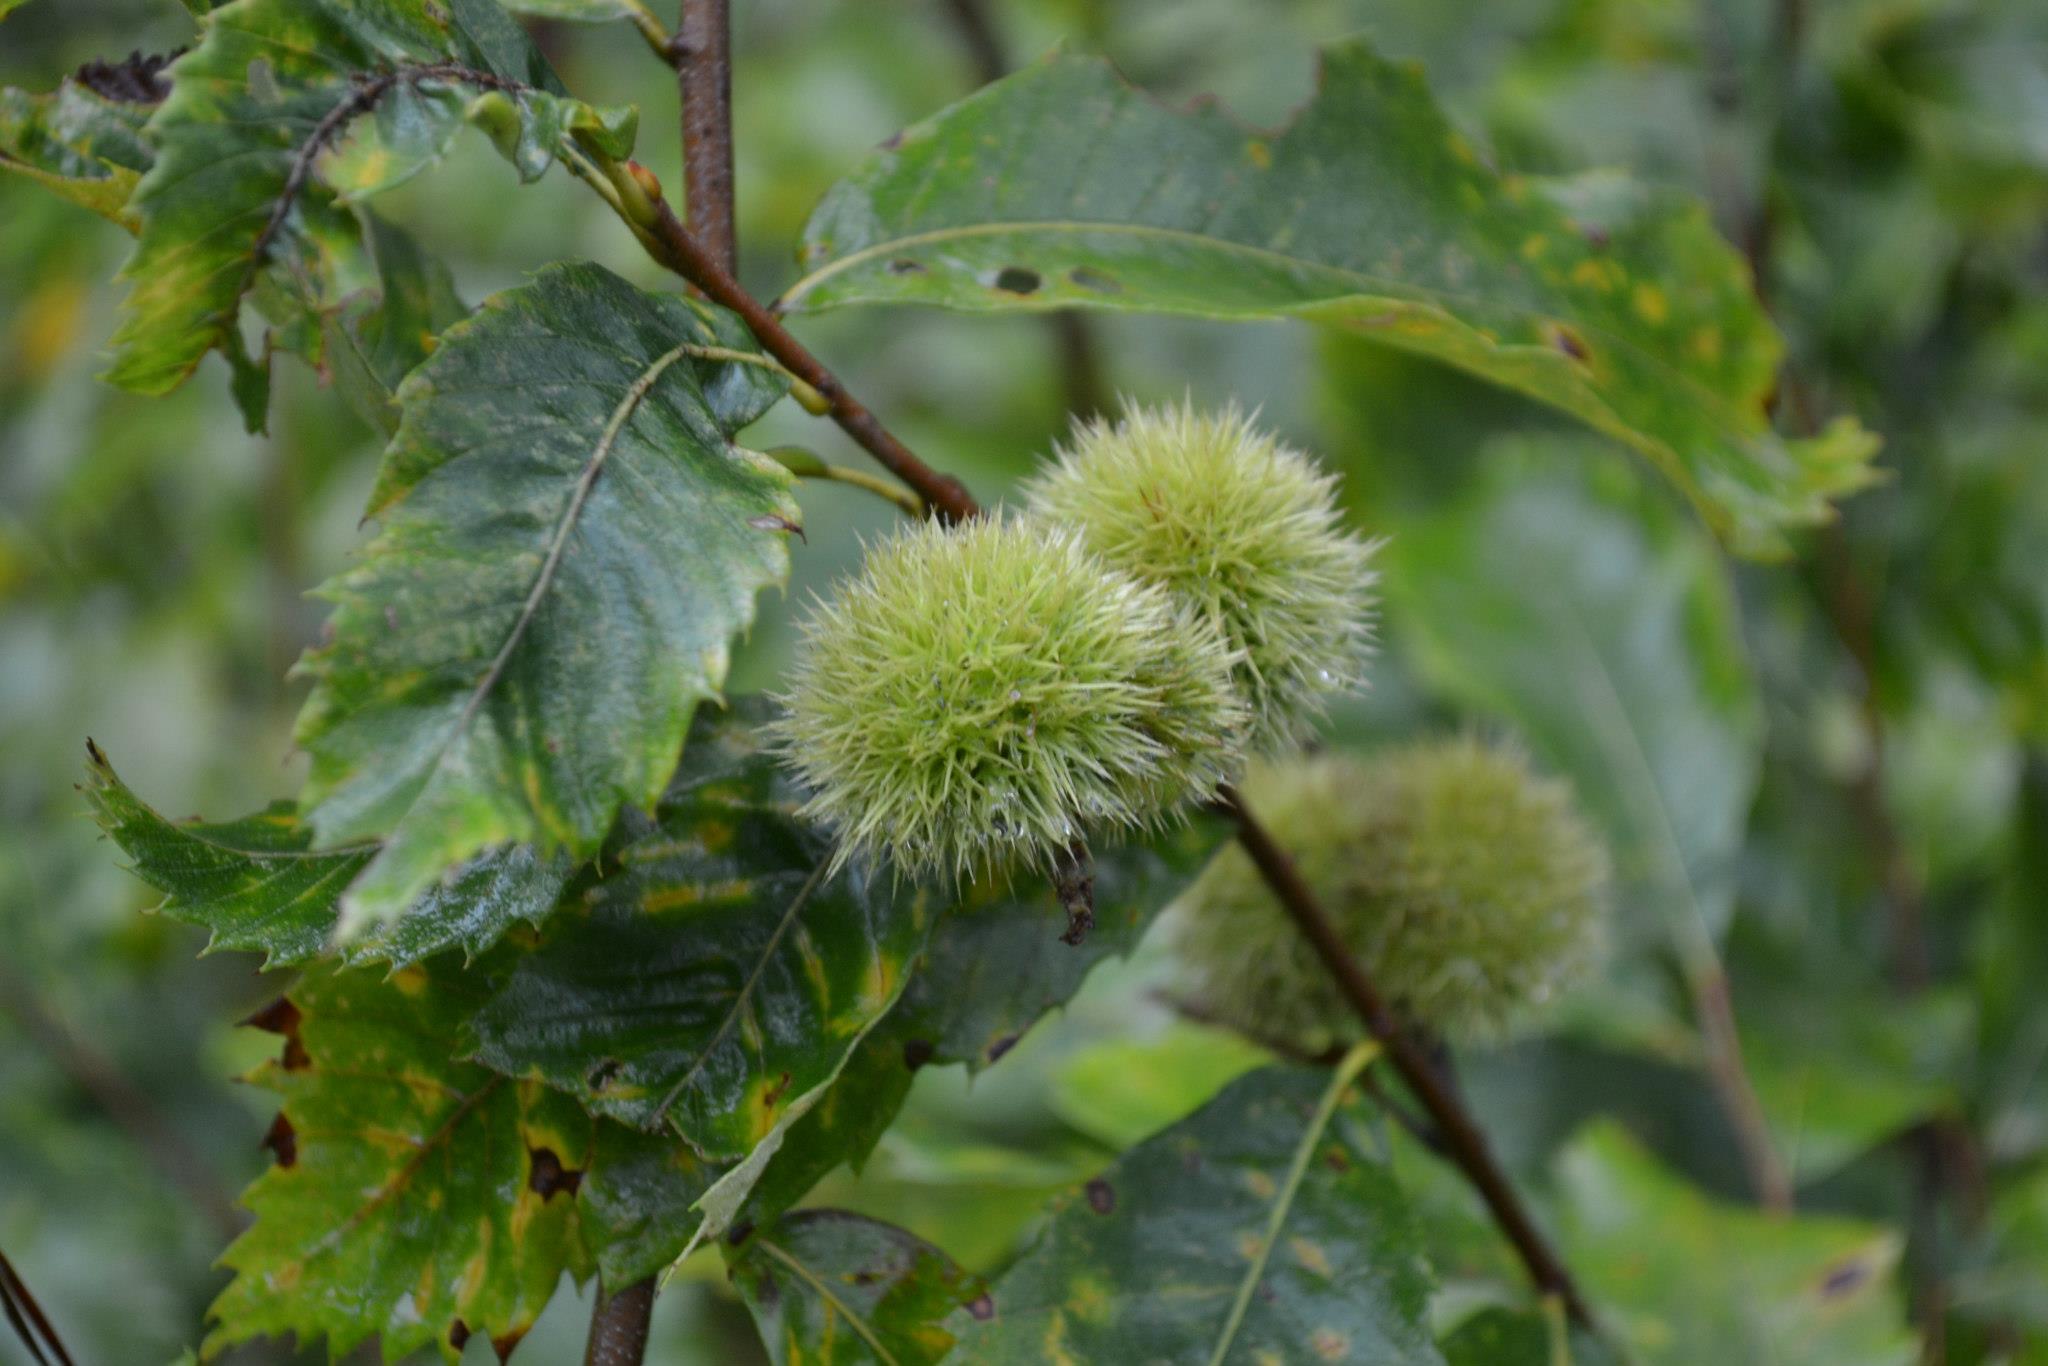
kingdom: Plantae
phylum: Tracheophyta
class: Magnoliopsida
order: Fagales
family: Fagaceae
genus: Castanea
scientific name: Castanea pumila
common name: Chinkapin
